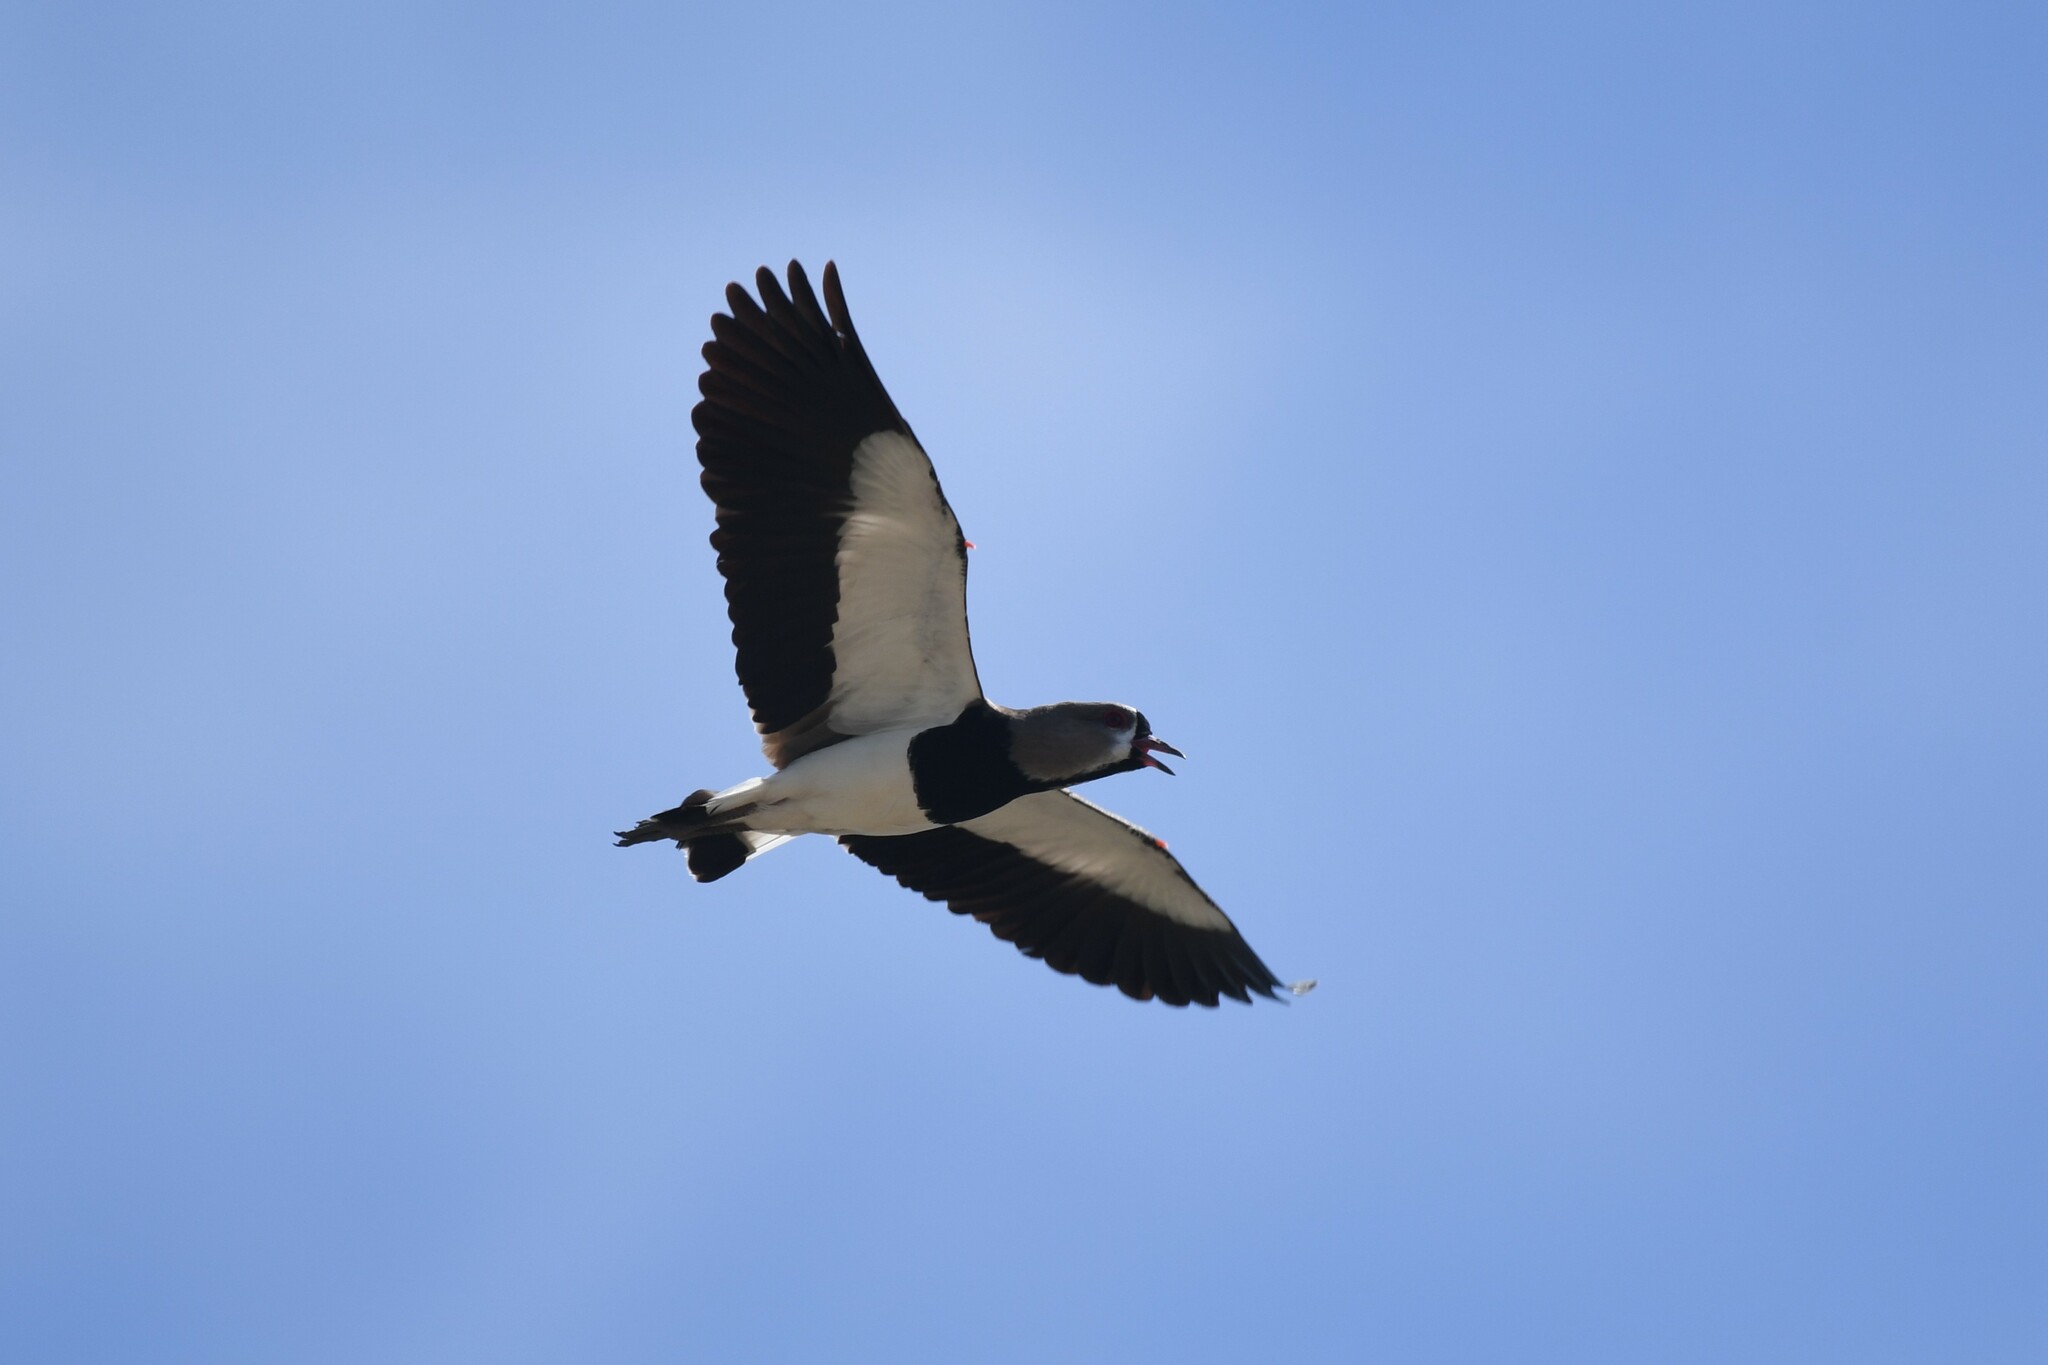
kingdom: Animalia
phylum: Chordata
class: Aves
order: Charadriiformes
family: Charadriidae
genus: Vanellus
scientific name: Vanellus chilensis
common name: Southern lapwing
